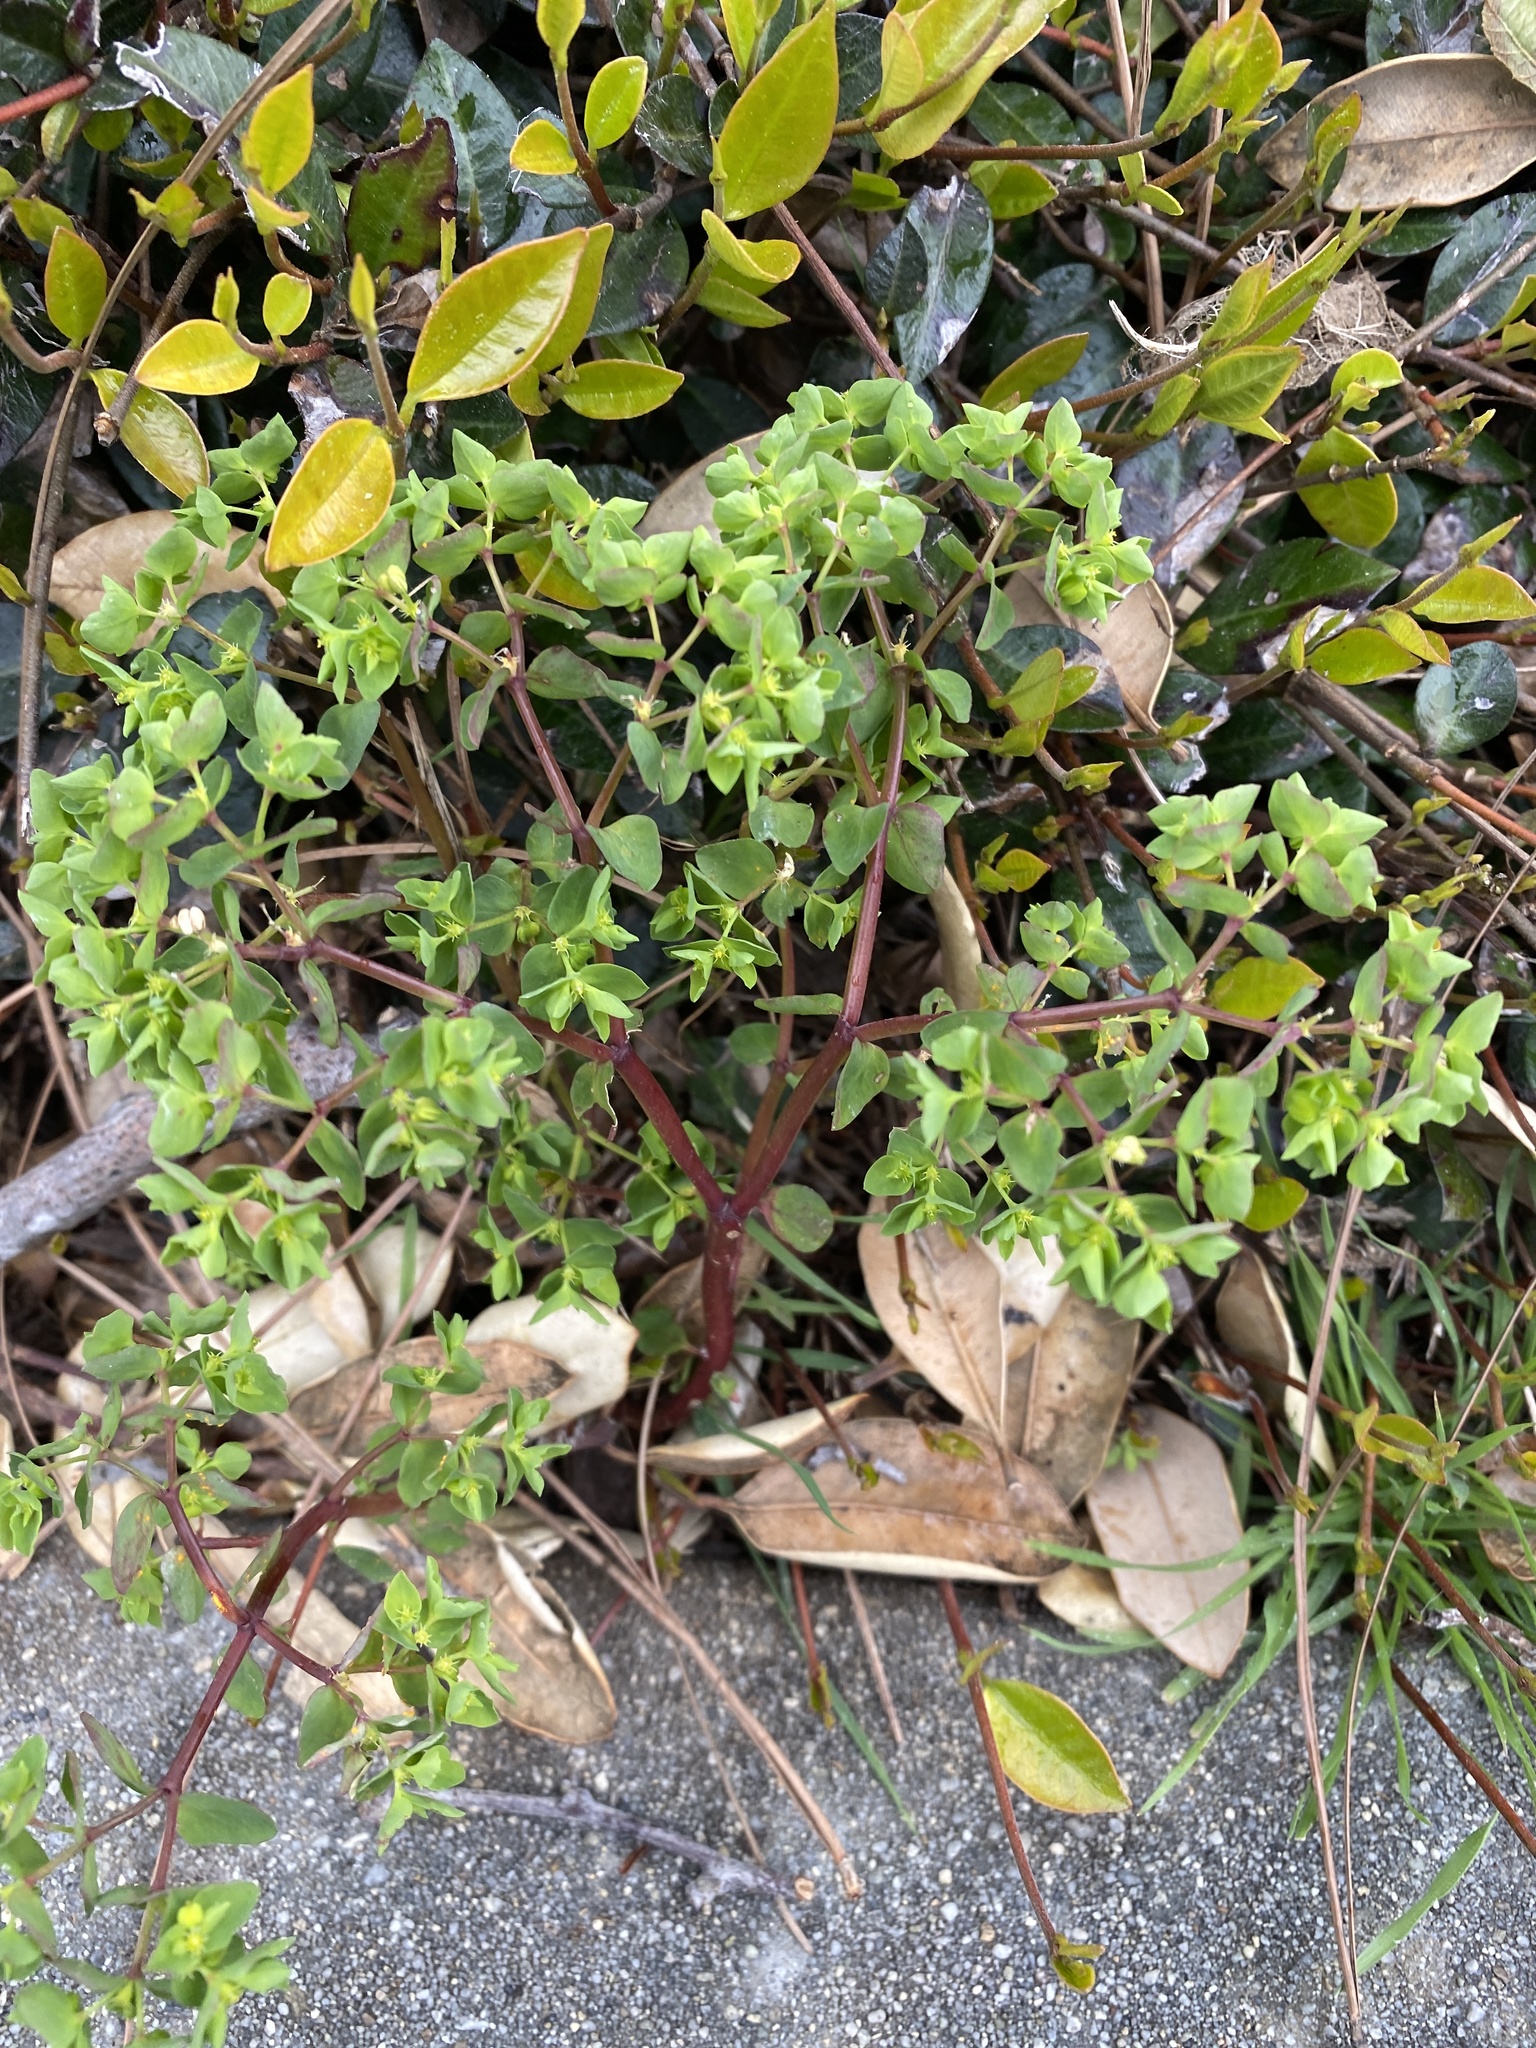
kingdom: Plantae
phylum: Tracheophyta
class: Magnoliopsida
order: Malpighiales
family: Euphorbiaceae
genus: Euphorbia
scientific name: Euphorbia peplus
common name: Petty spurge
